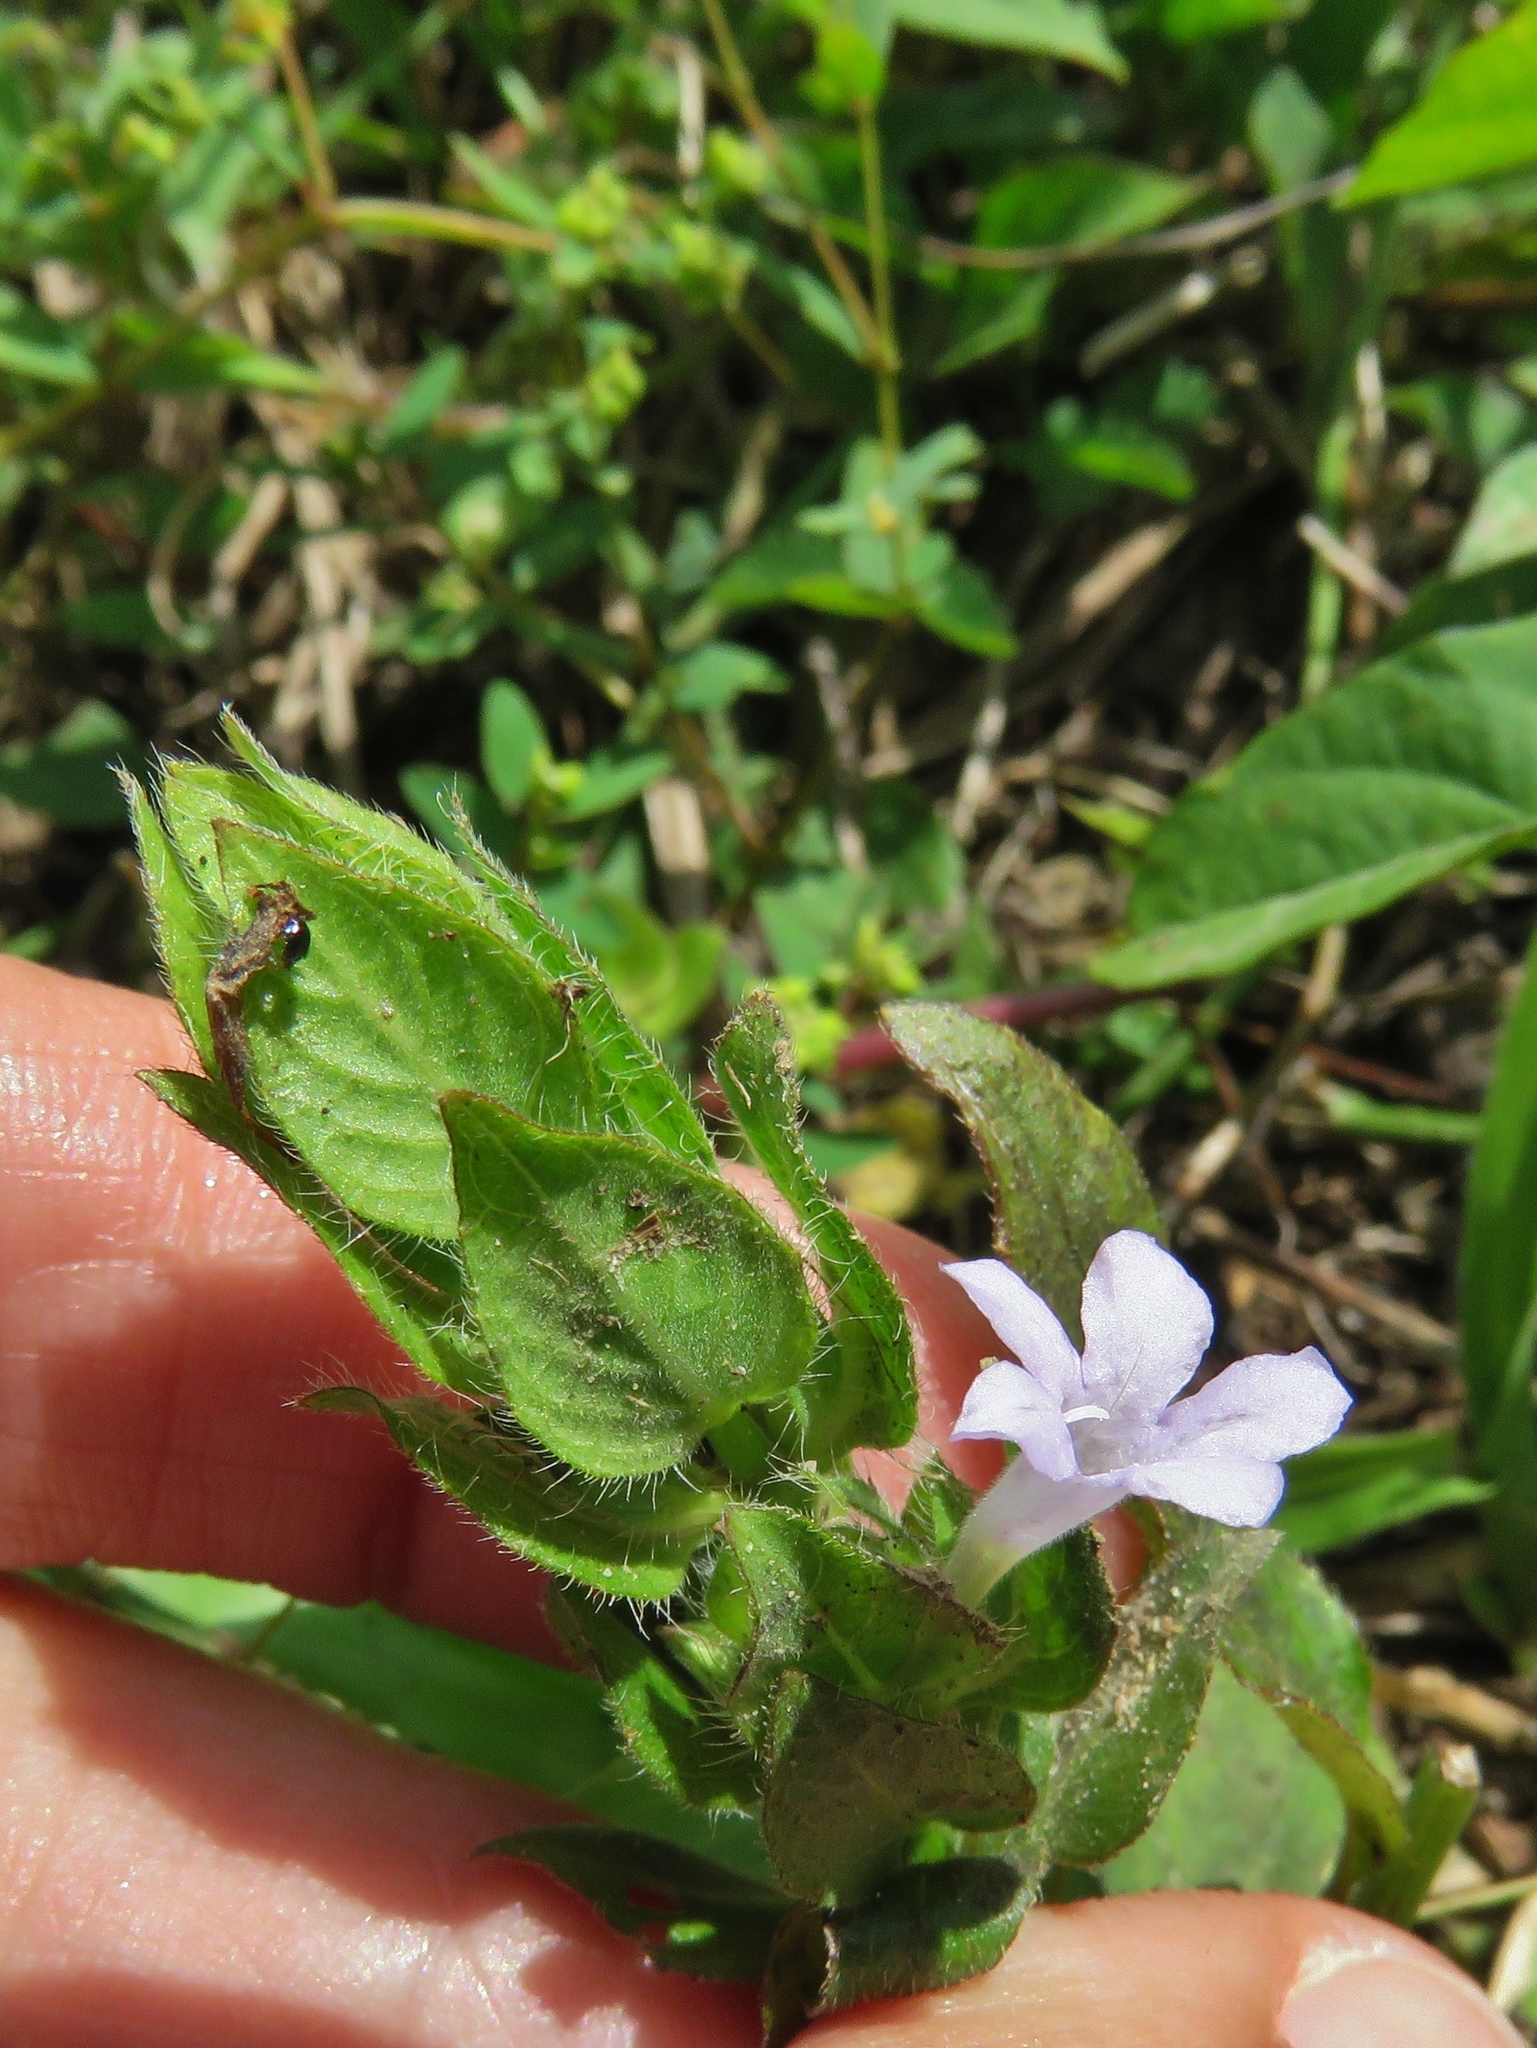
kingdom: Plantae
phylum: Tracheophyta
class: Magnoliopsida
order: Lamiales
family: Acanthaceae
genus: Ruellia
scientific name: Ruellia blechum
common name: Browne's blechum
